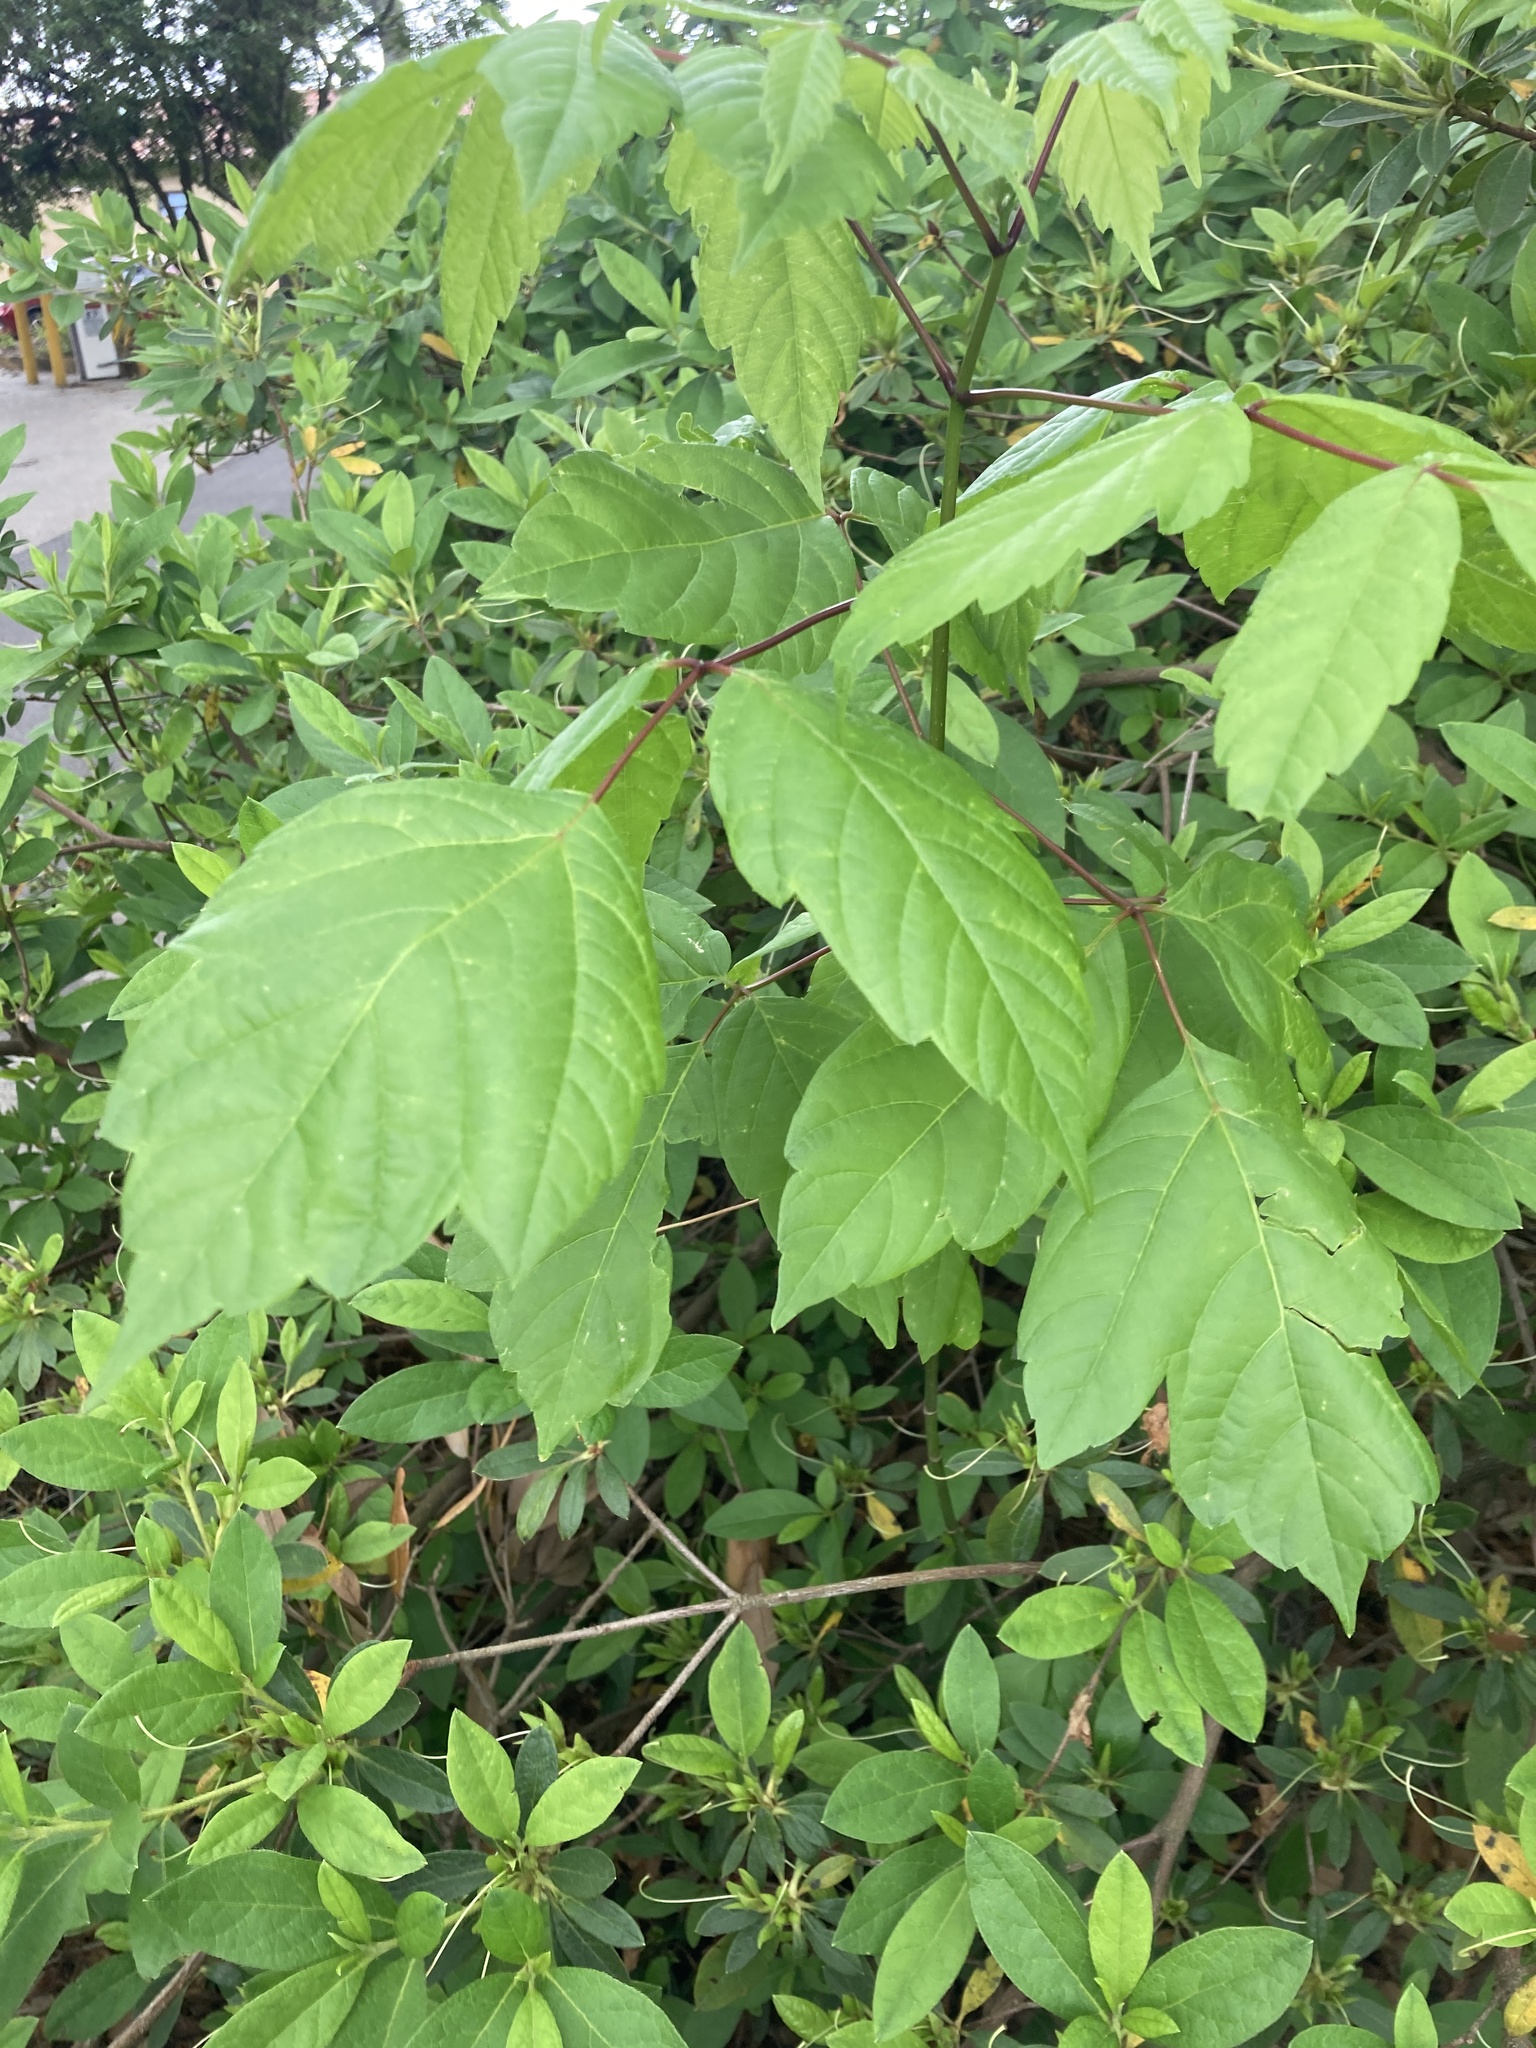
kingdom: Plantae
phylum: Tracheophyta
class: Magnoliopsida
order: Sapindales
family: Sapindaceae
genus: Acer
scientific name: Acer negundo
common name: Ashleaf maple
